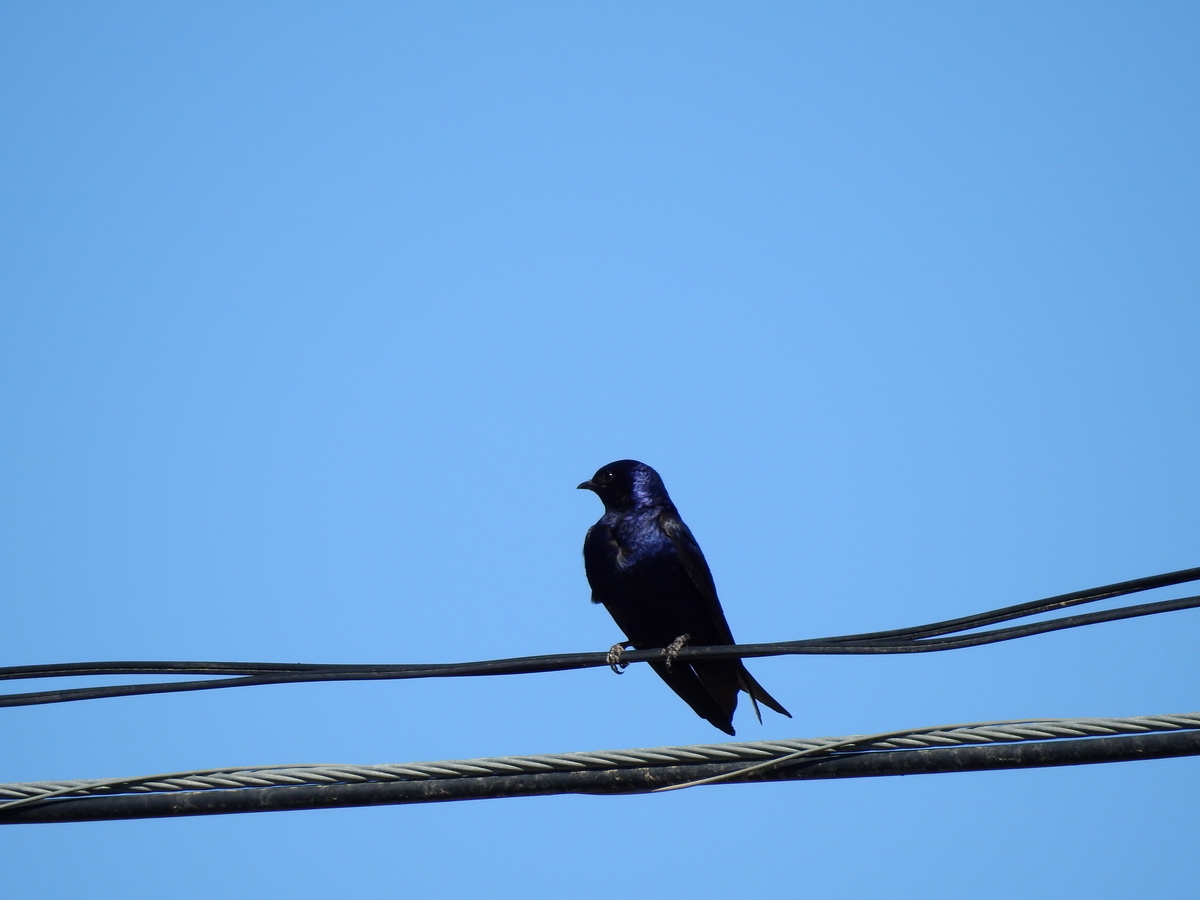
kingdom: Animalia
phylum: Chordata
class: Aves
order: Passeriformes
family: Hirundinidae
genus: Progne
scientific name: Progne elegans
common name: Southern martin
